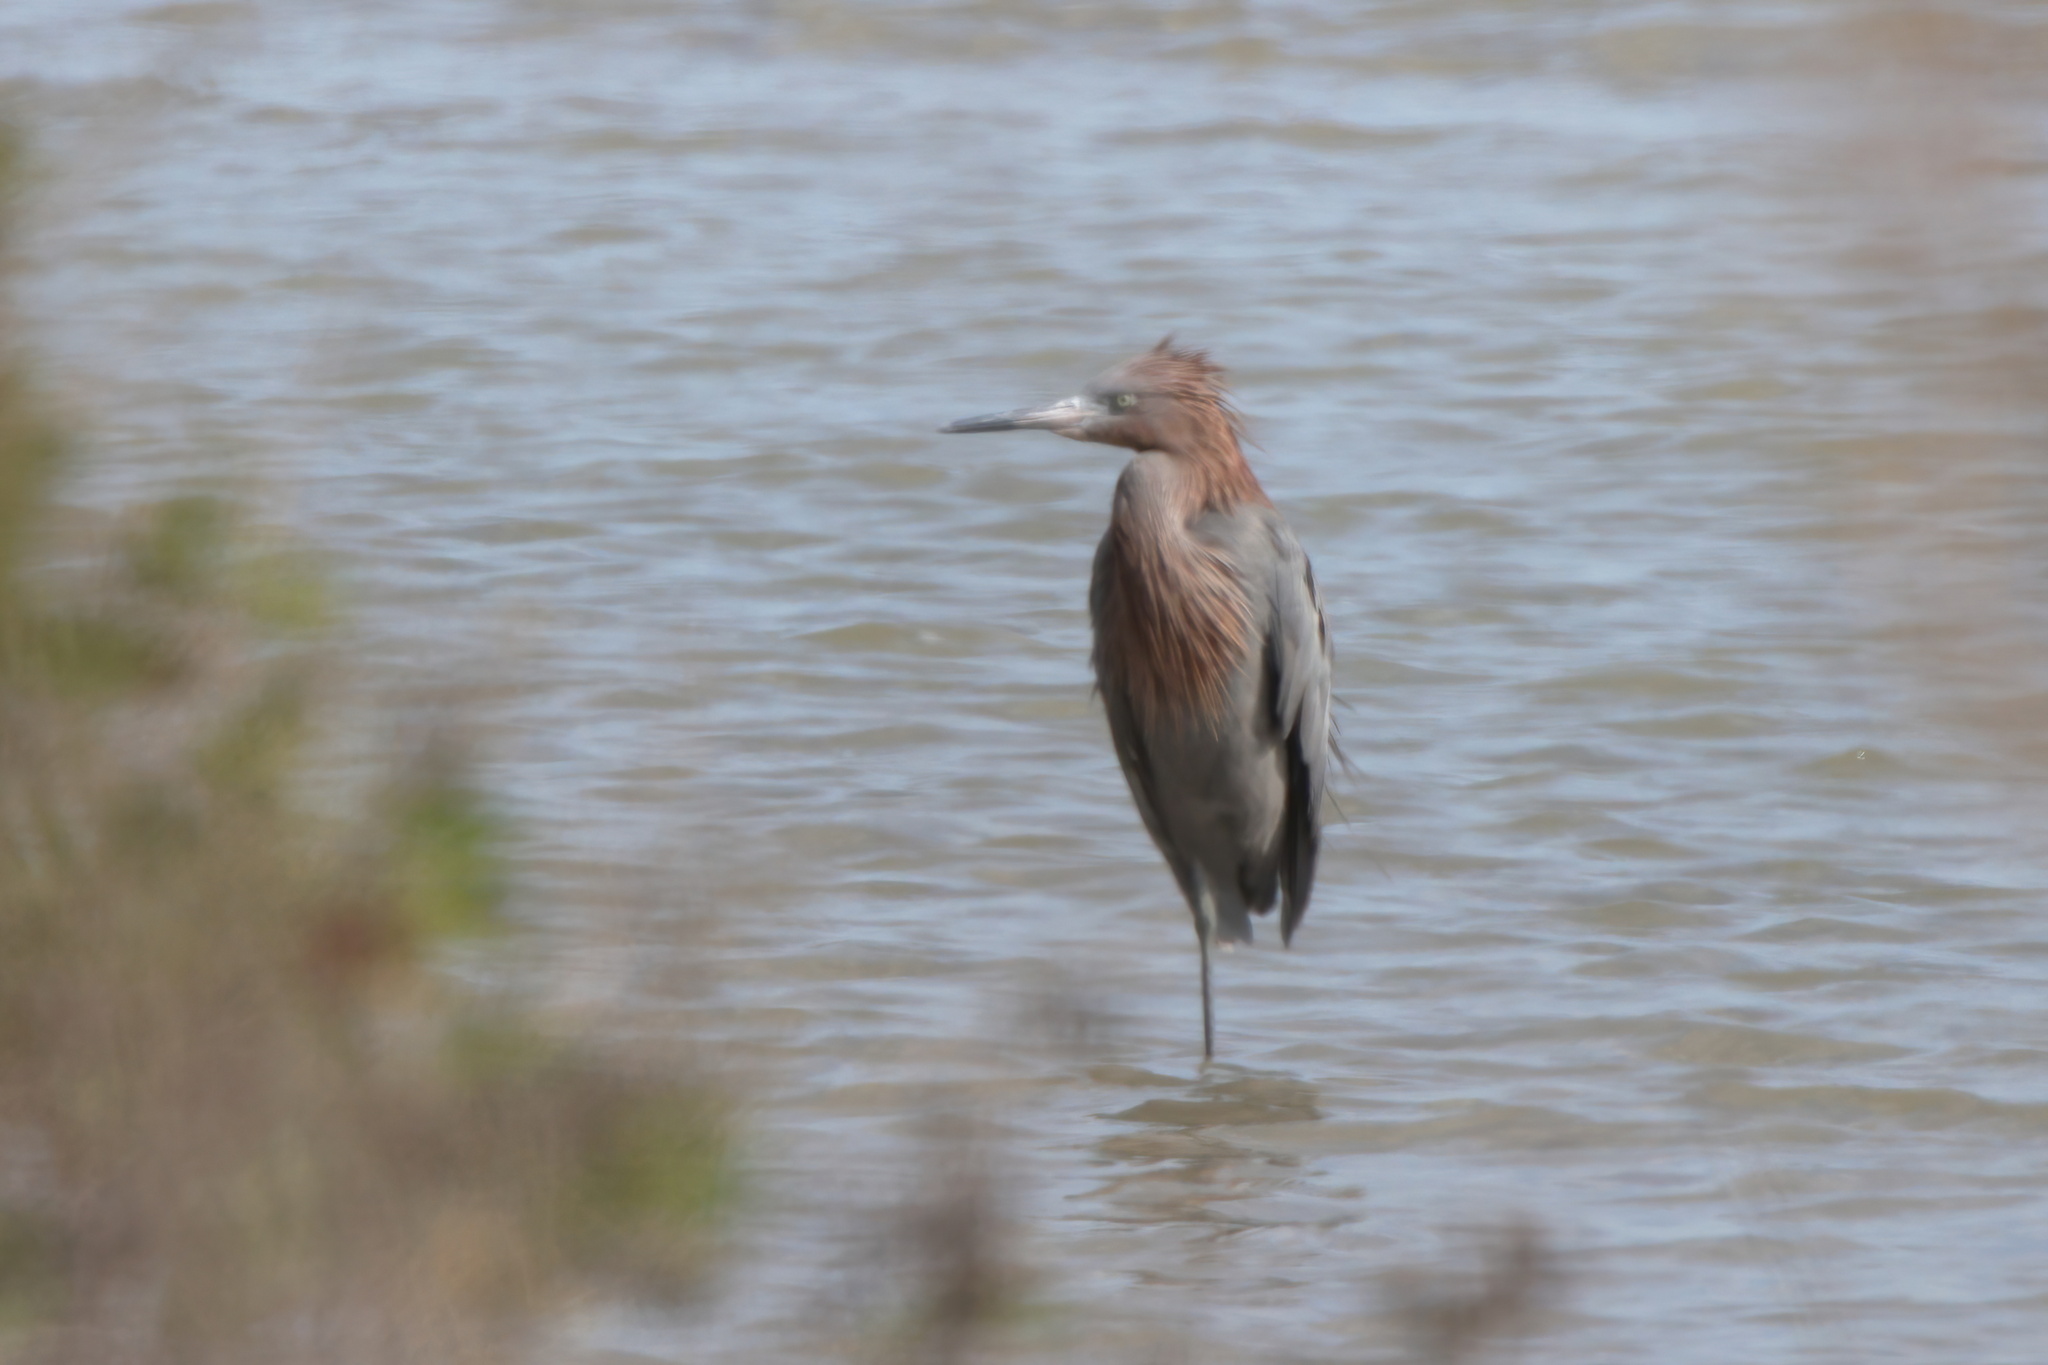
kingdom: Animalia
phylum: Chordata
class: Aves
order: Pelecaniformes
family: Ardeidae
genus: Egretta
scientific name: Egretta rufescens
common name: Reddish egret
